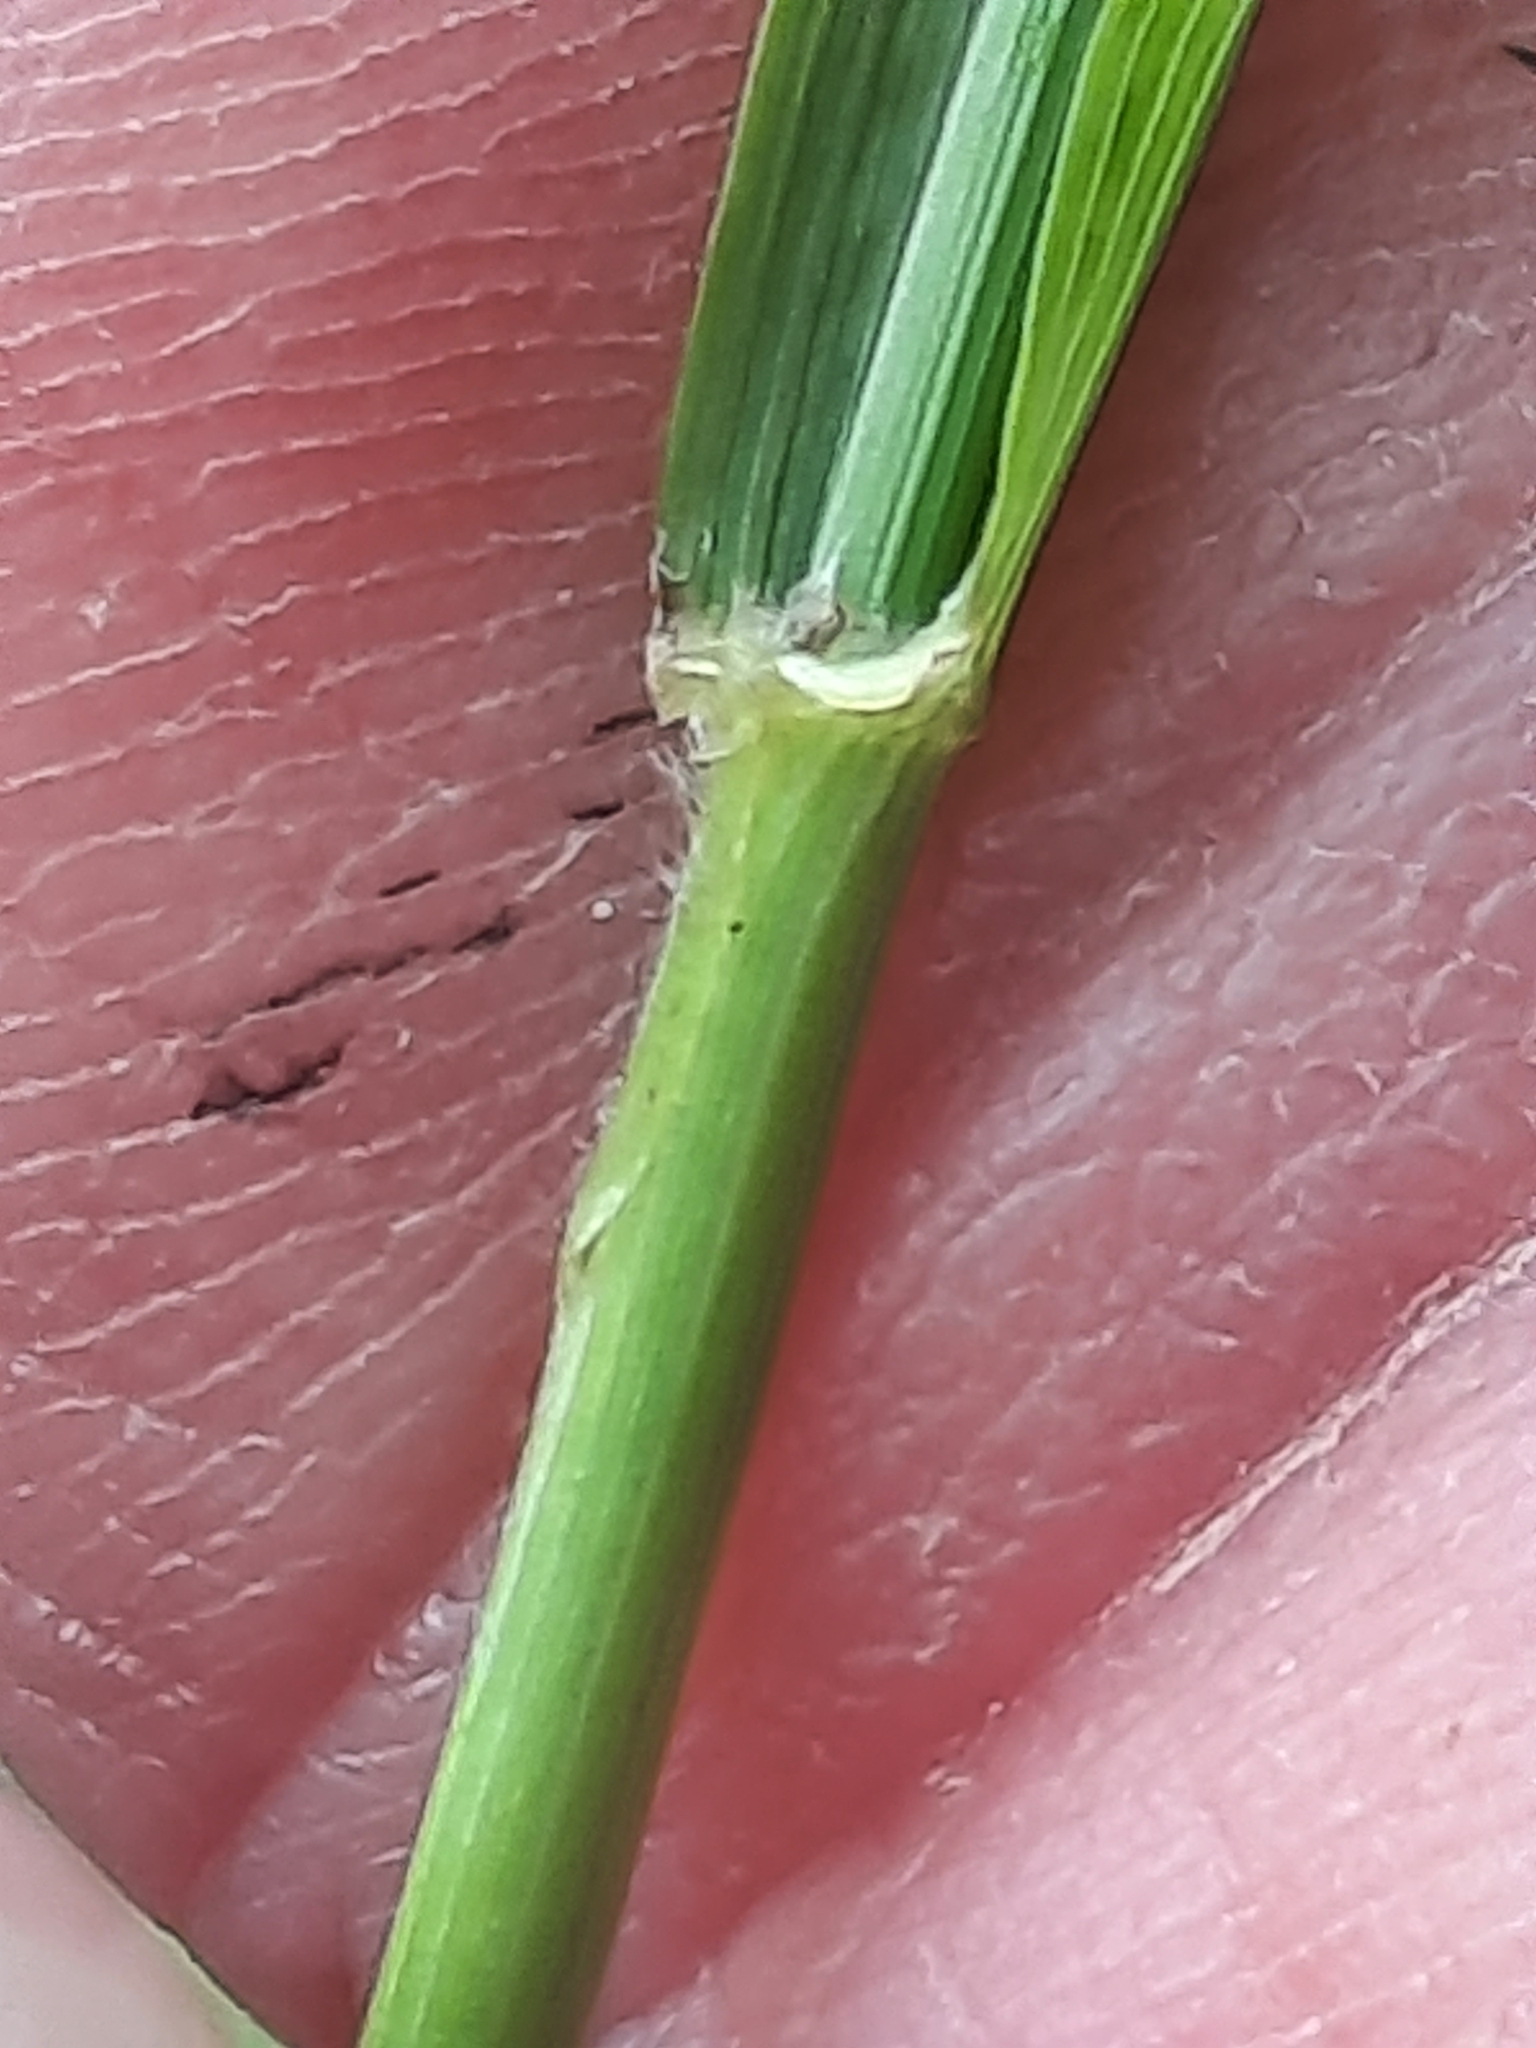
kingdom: Plantae
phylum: Tracheophyta
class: Liliopsida
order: Poales
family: Poaceae
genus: Bromus
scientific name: Bromus latiglumis
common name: Broad-glumed brome
